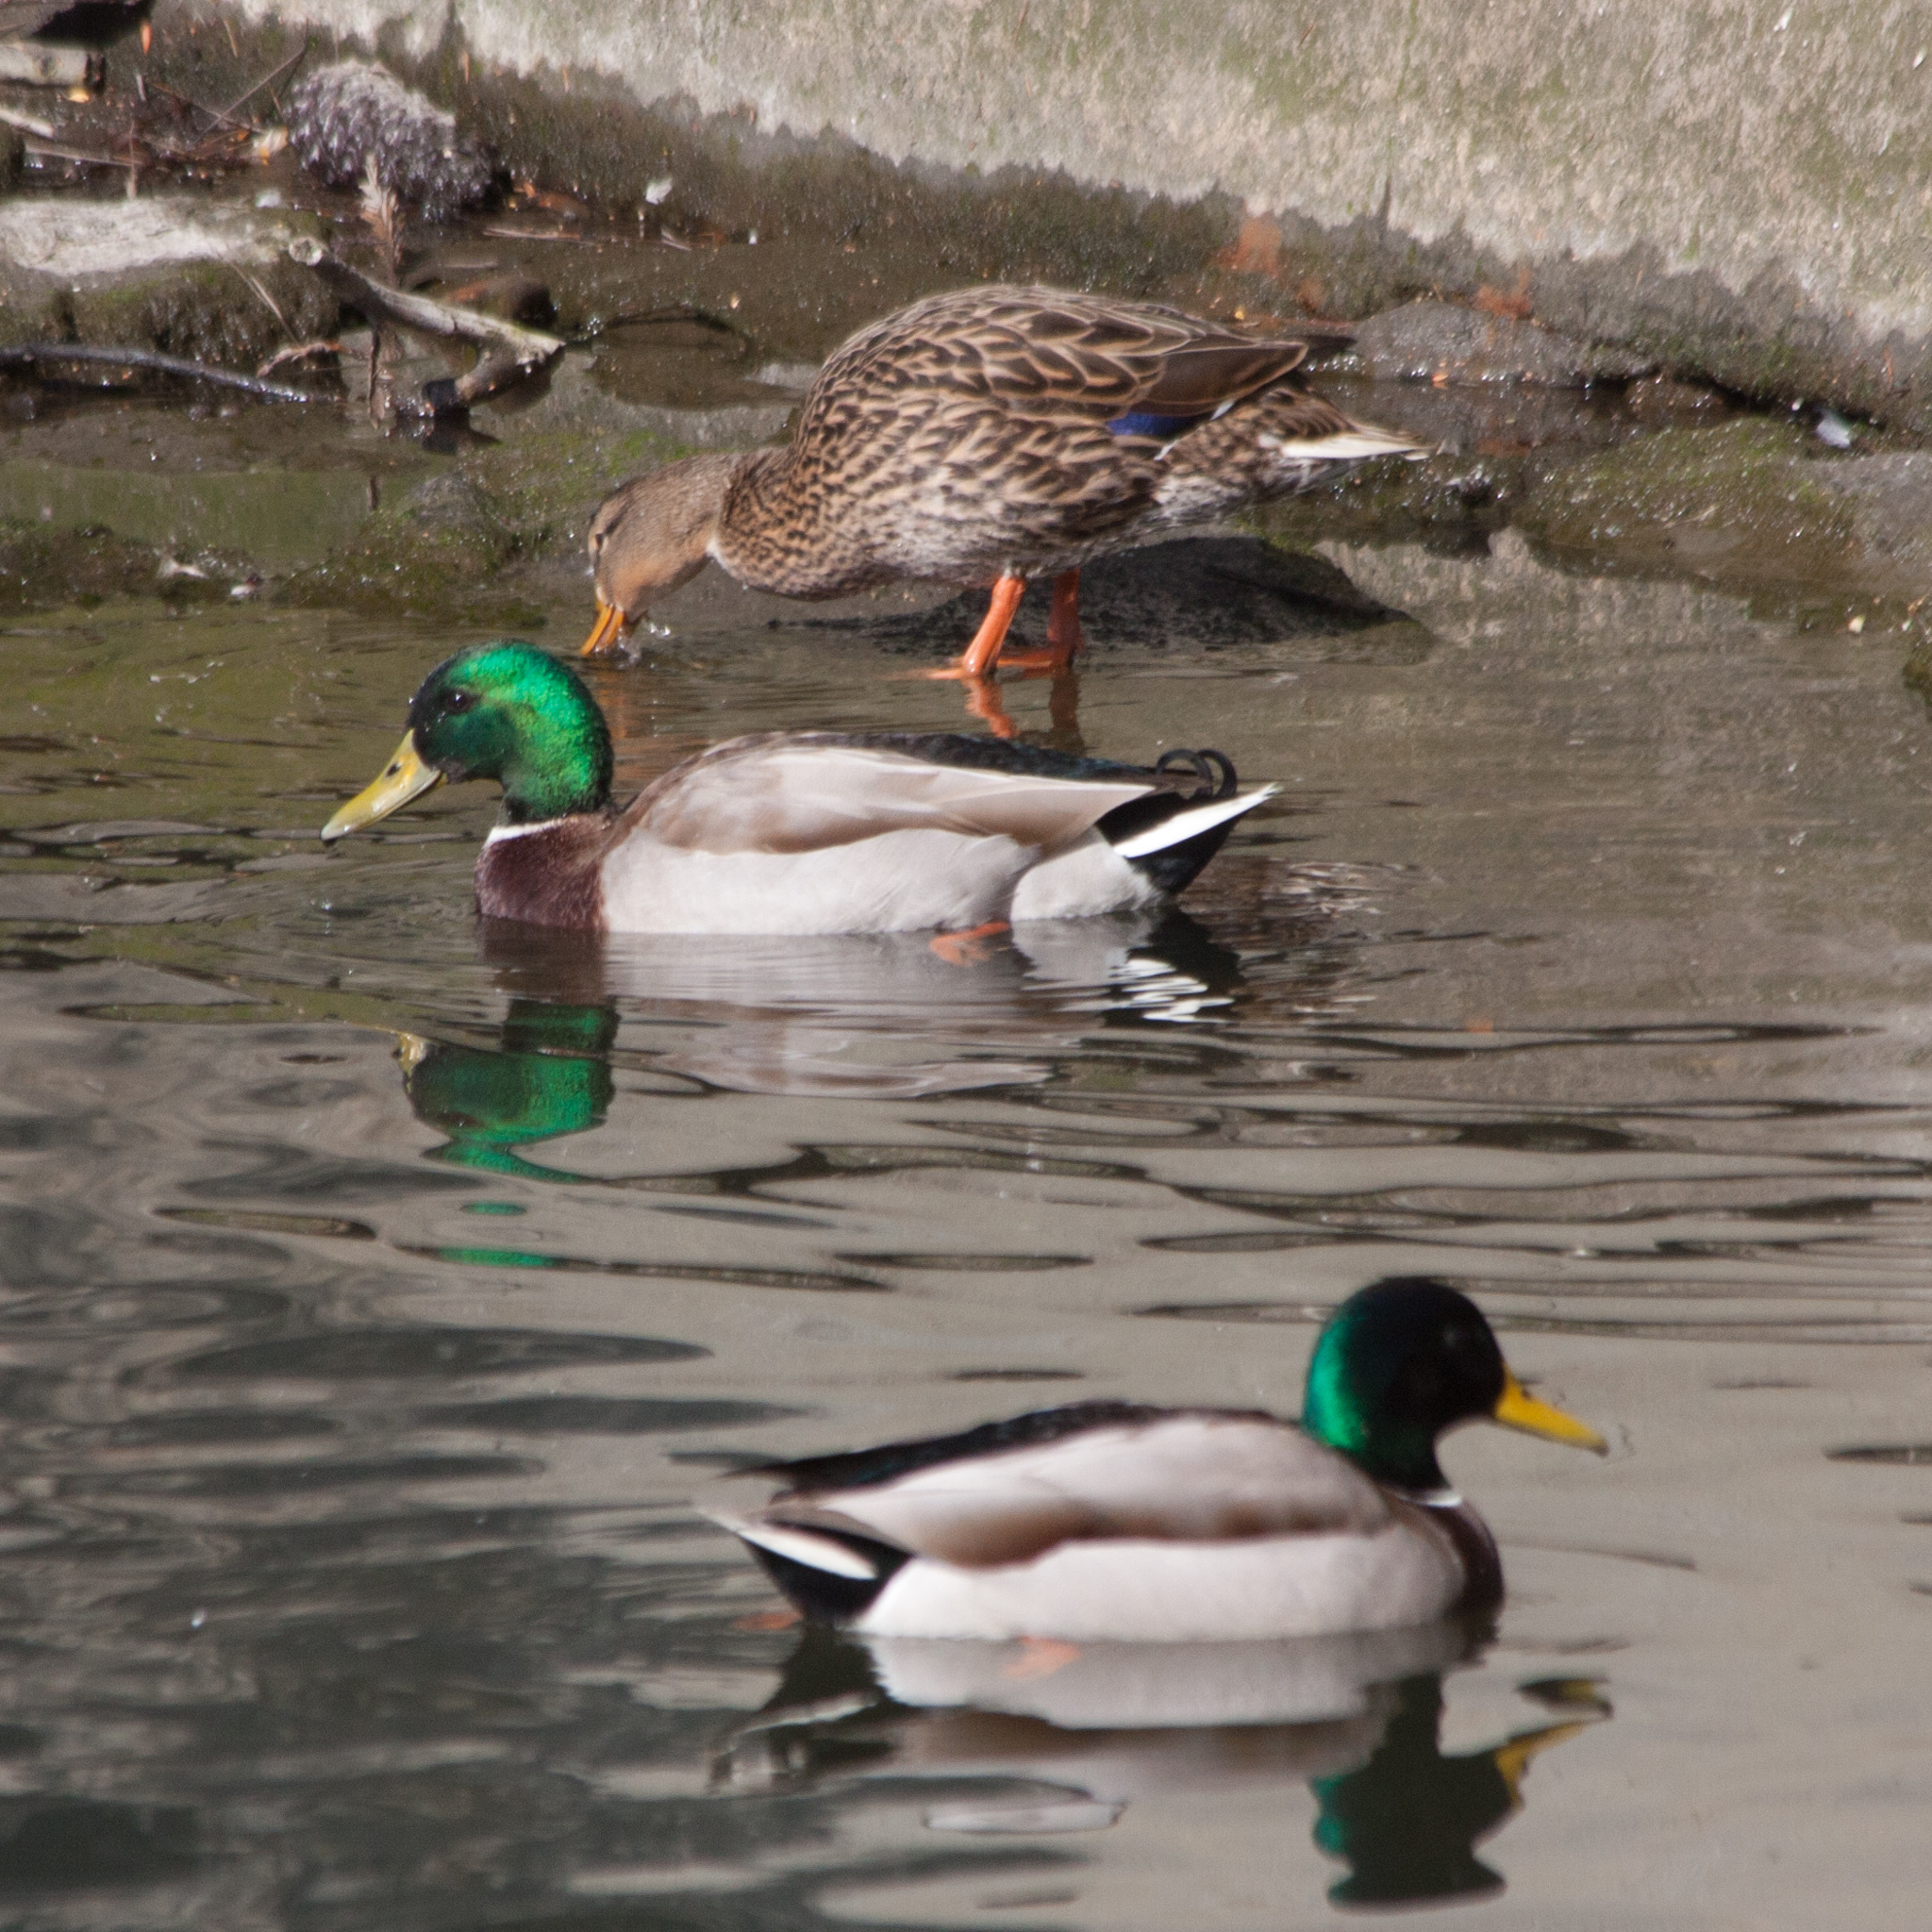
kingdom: Animalia
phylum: Chordata
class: Aves
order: Anseriformes
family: Anatidae
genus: Anas
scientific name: Anas platyrhynchos
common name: Mallard
